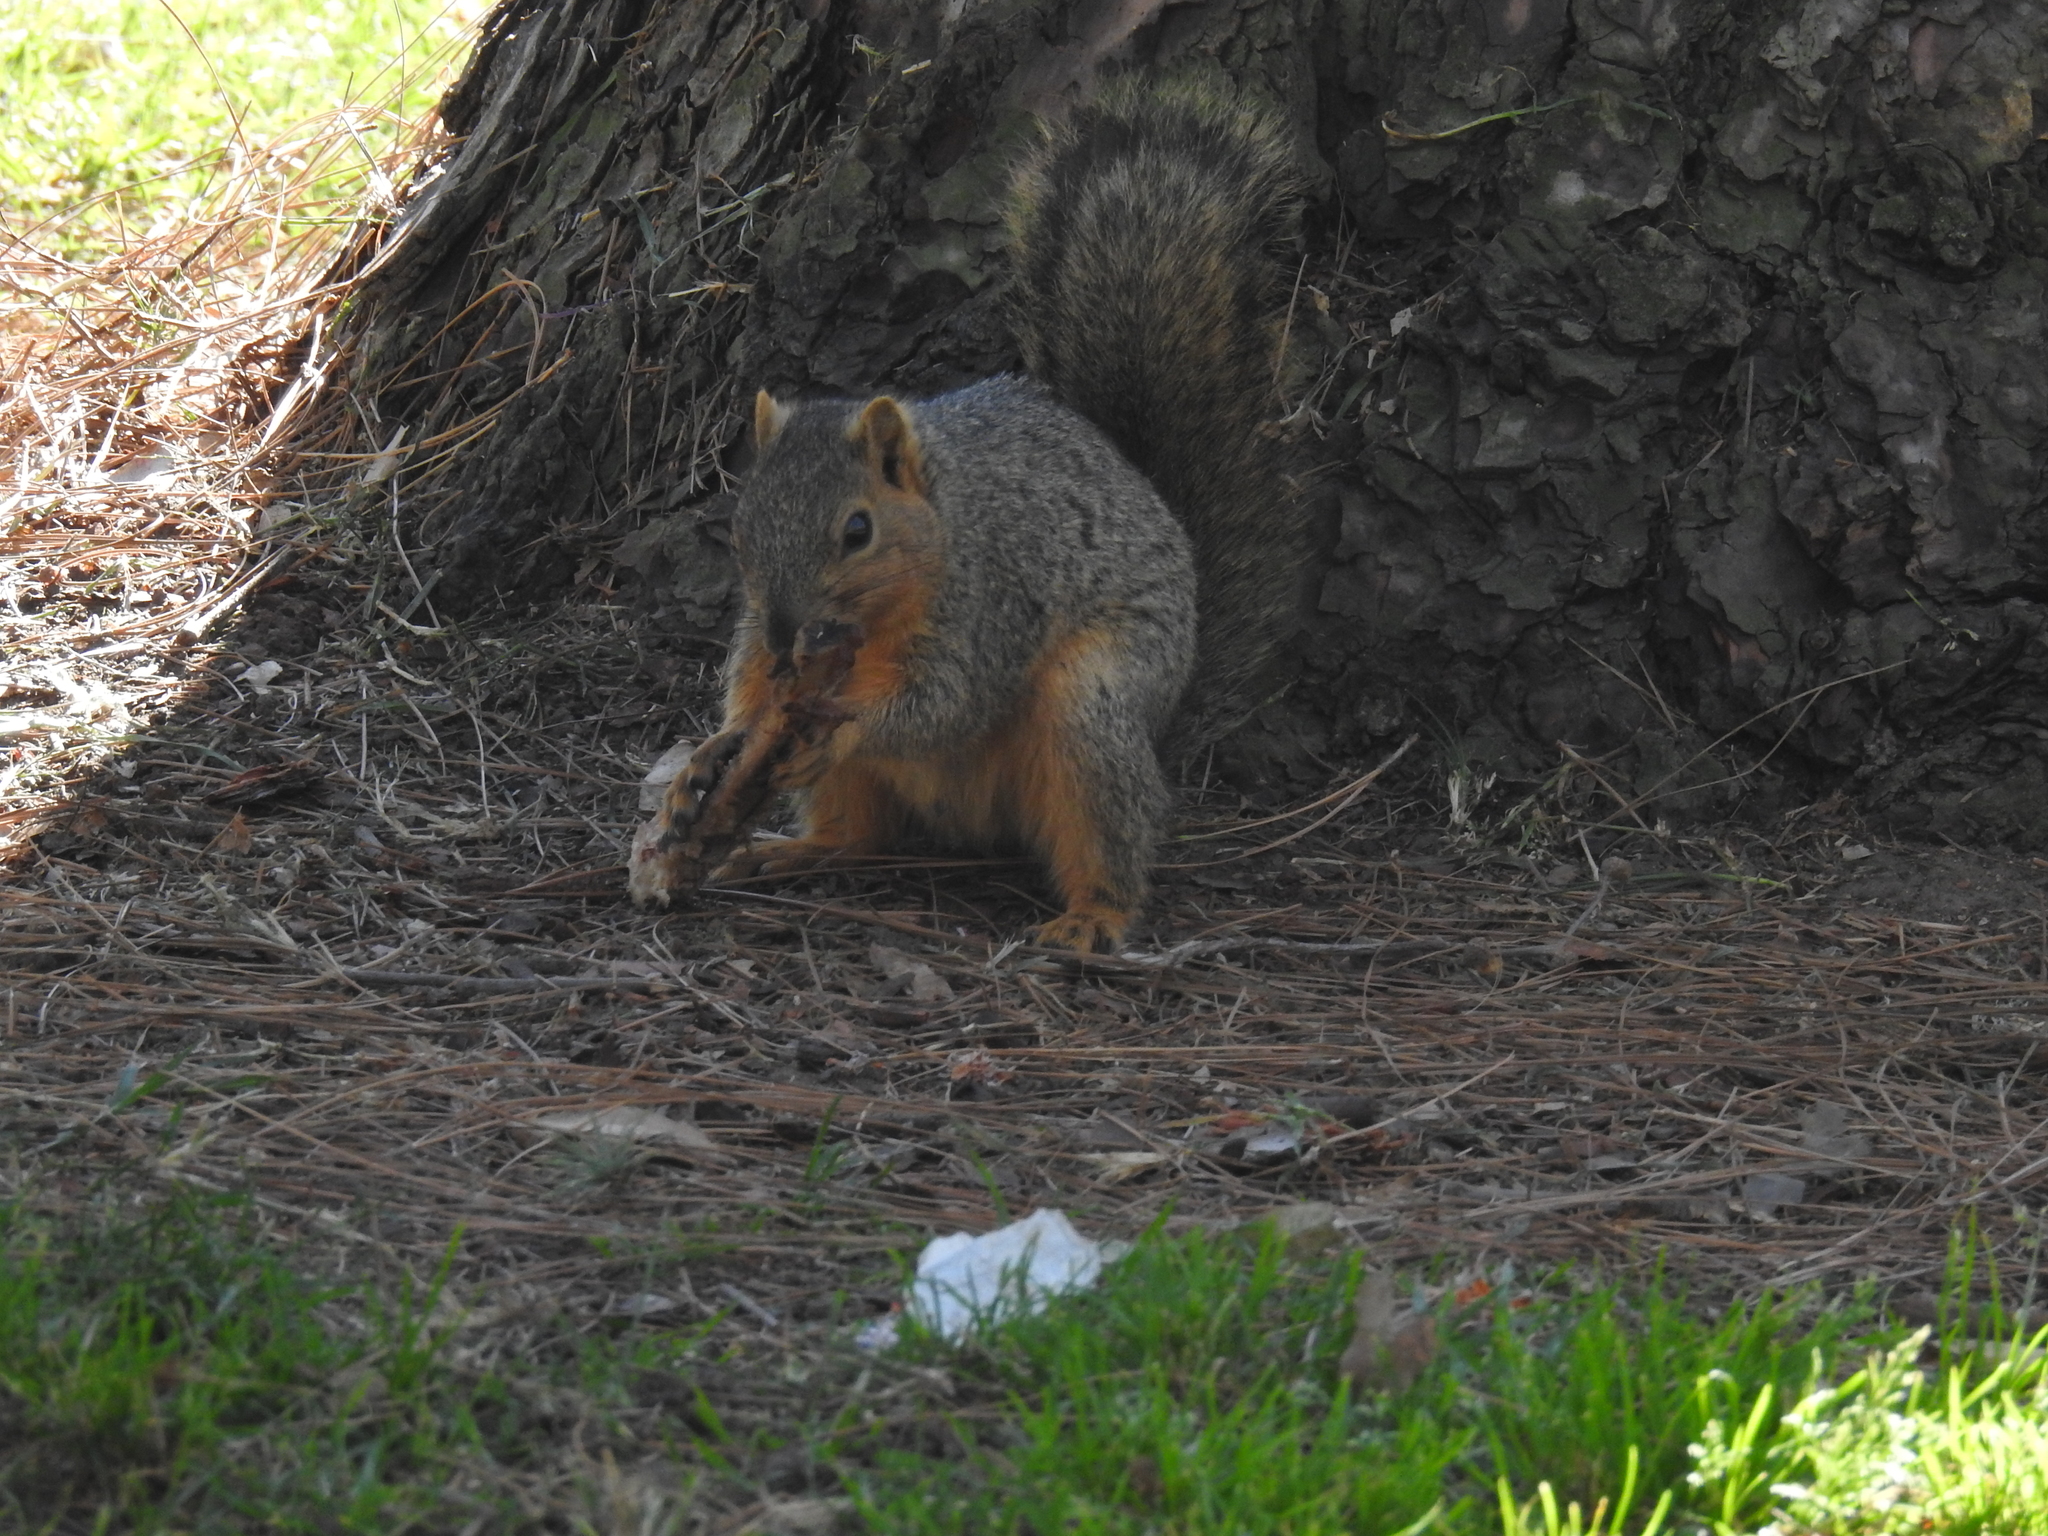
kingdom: Animalia
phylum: Chordata
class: Mammalia
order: Rodentia
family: Sciuridae
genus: Sciurus
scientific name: Sciurus niger
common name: Fox squirrel
